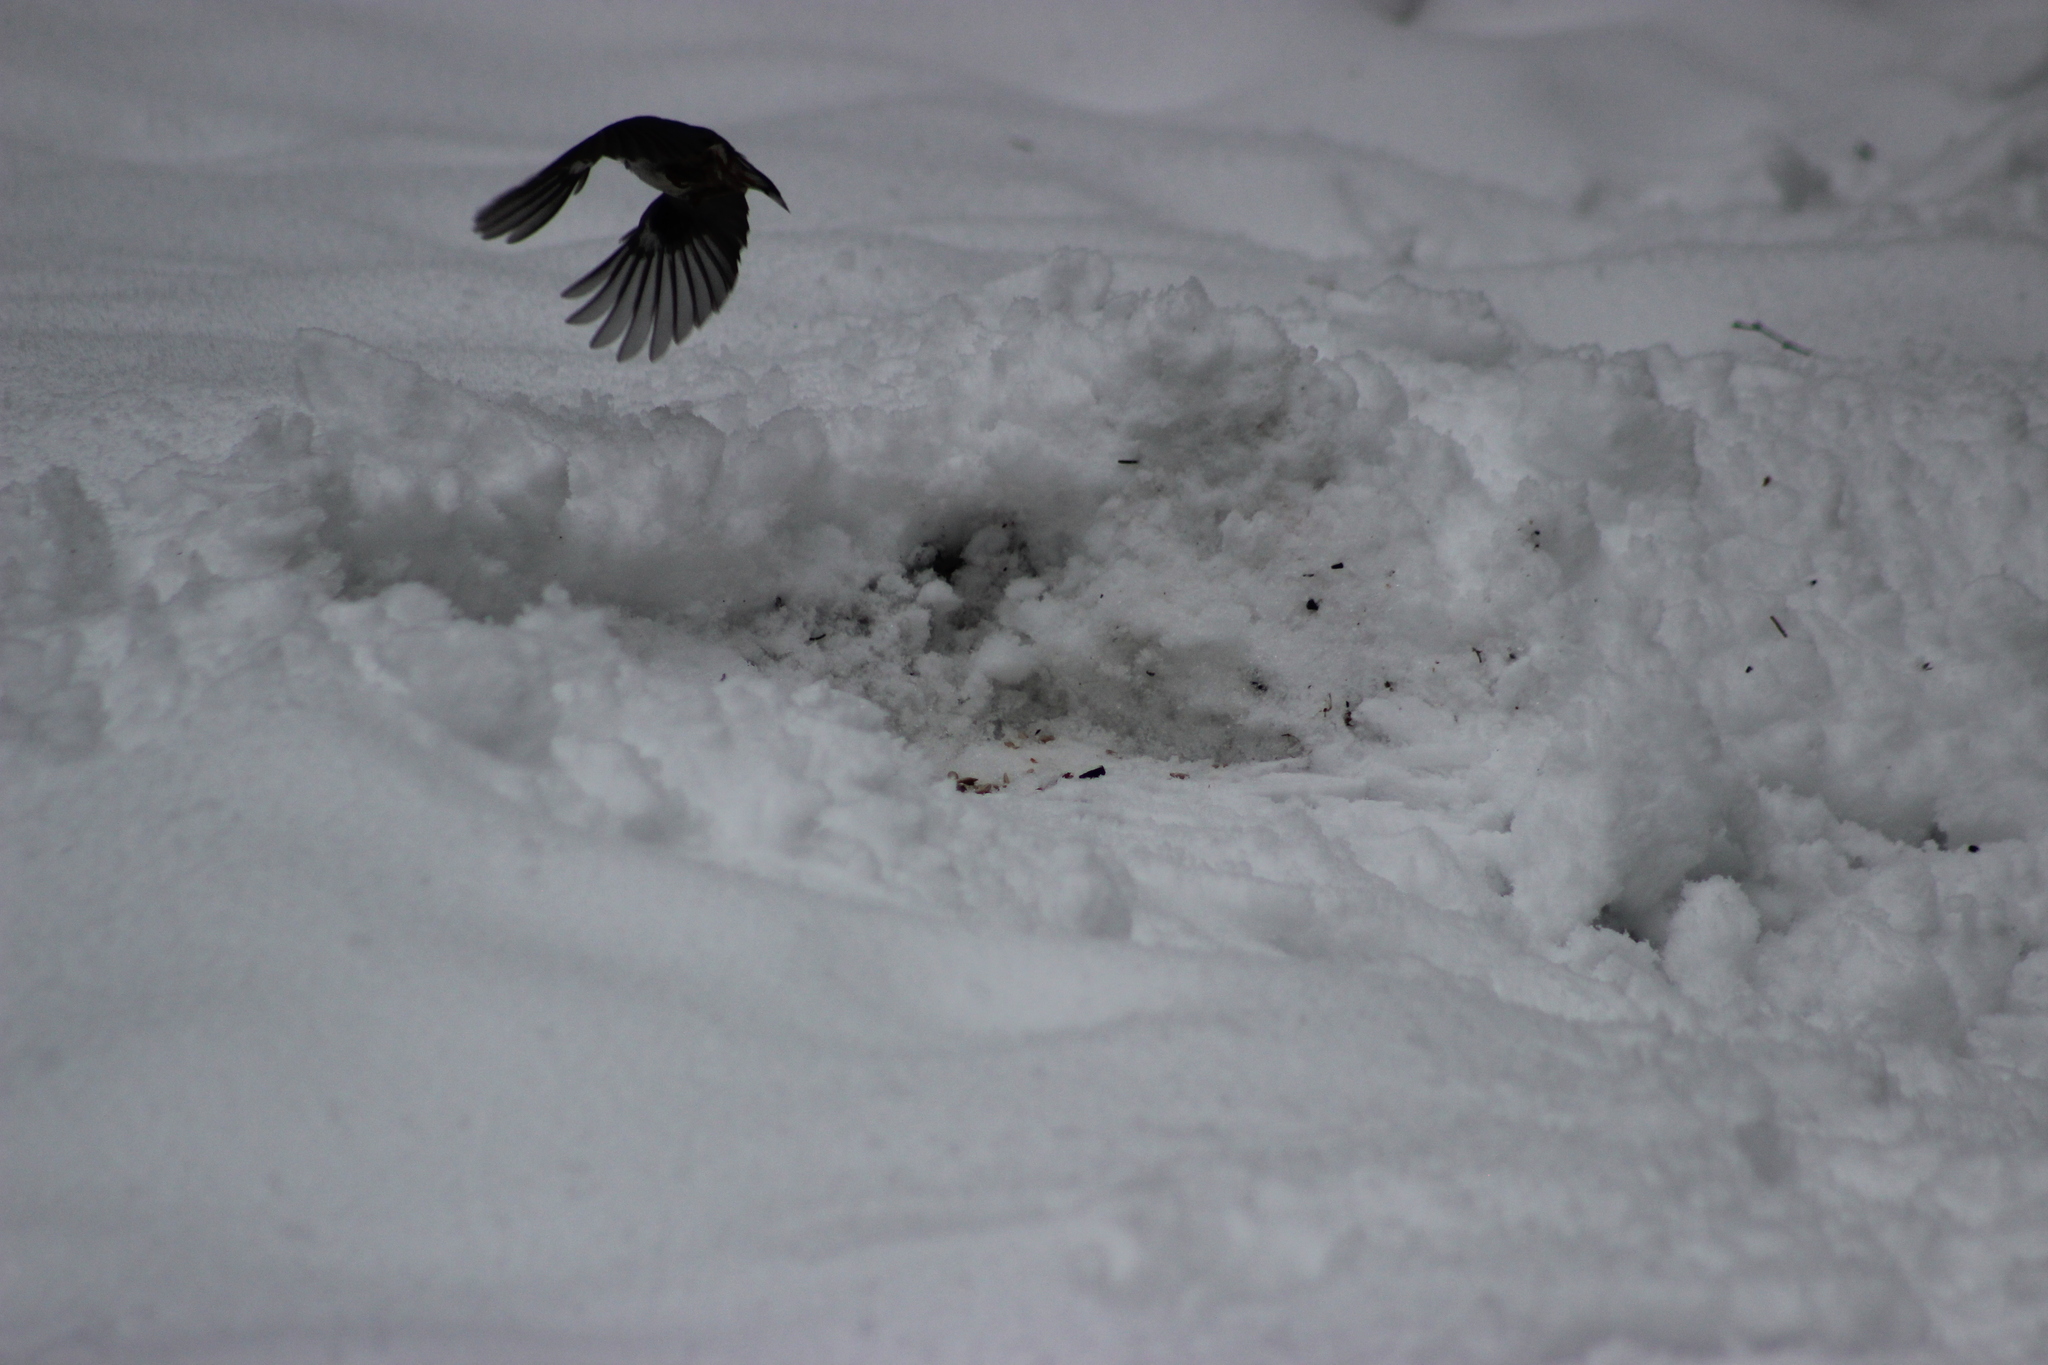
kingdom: Animalia
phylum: Chordata
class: Aves
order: Passeriformes
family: Sittidae
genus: Sitta
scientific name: Sitta europaea
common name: Eurasian nuthatch
